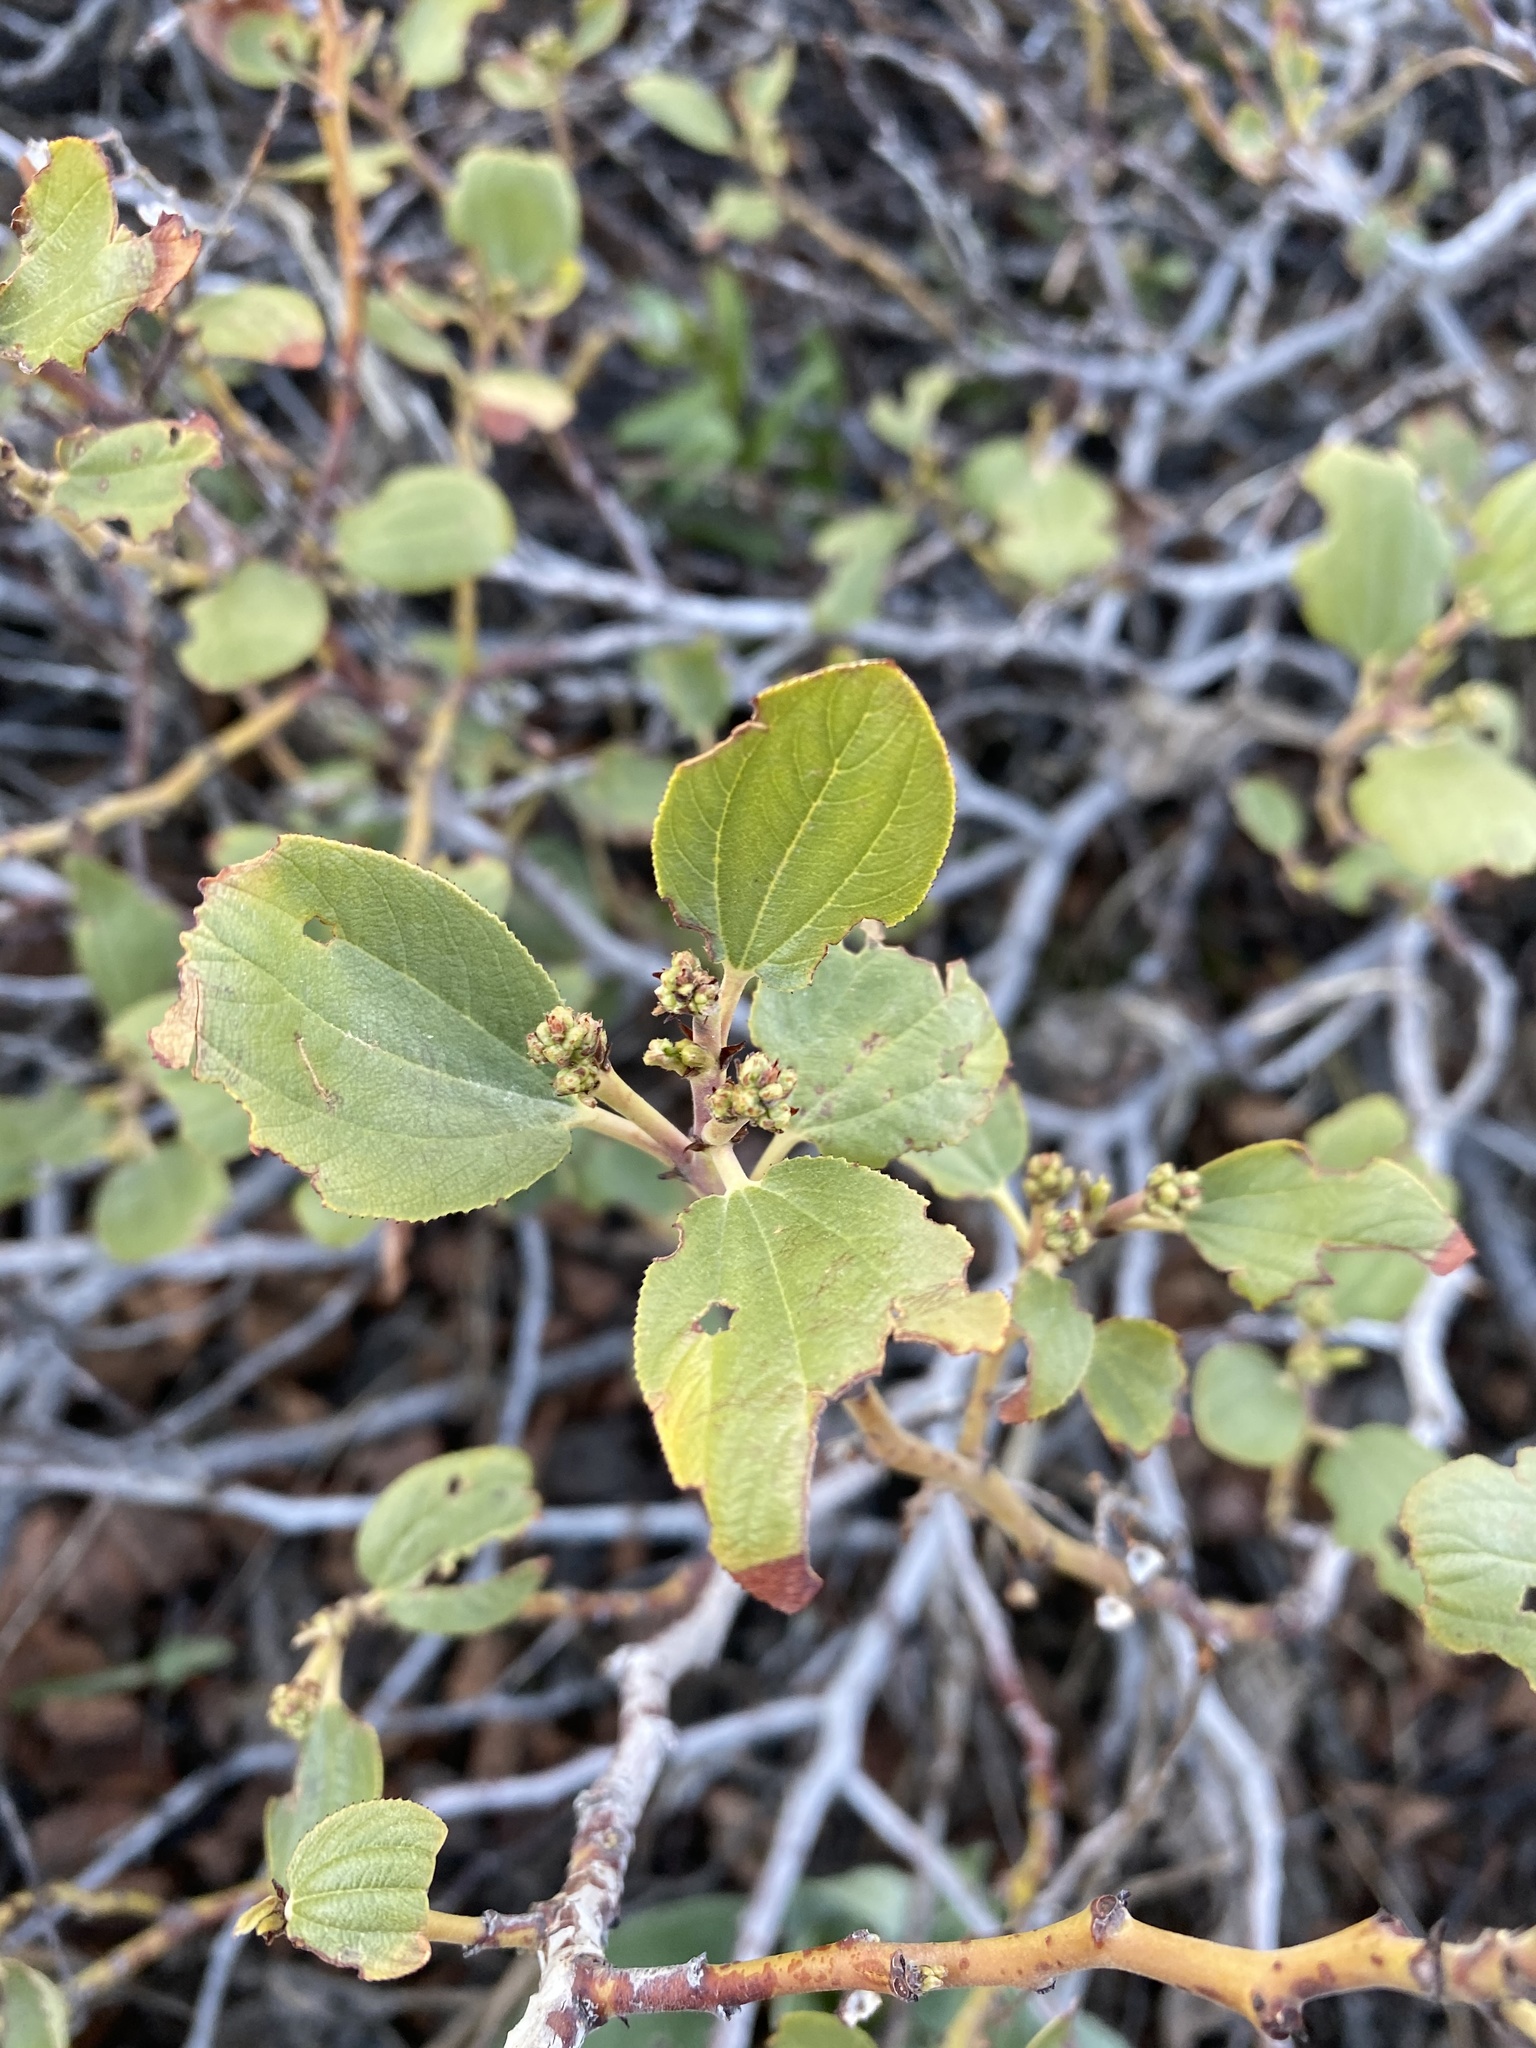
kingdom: Plantae
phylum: Tracheophyta
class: Magnoliopsida
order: Rosales
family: Rhamnaceae
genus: Ceanothus
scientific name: Ceanothus velutinus
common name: Snowbrush
